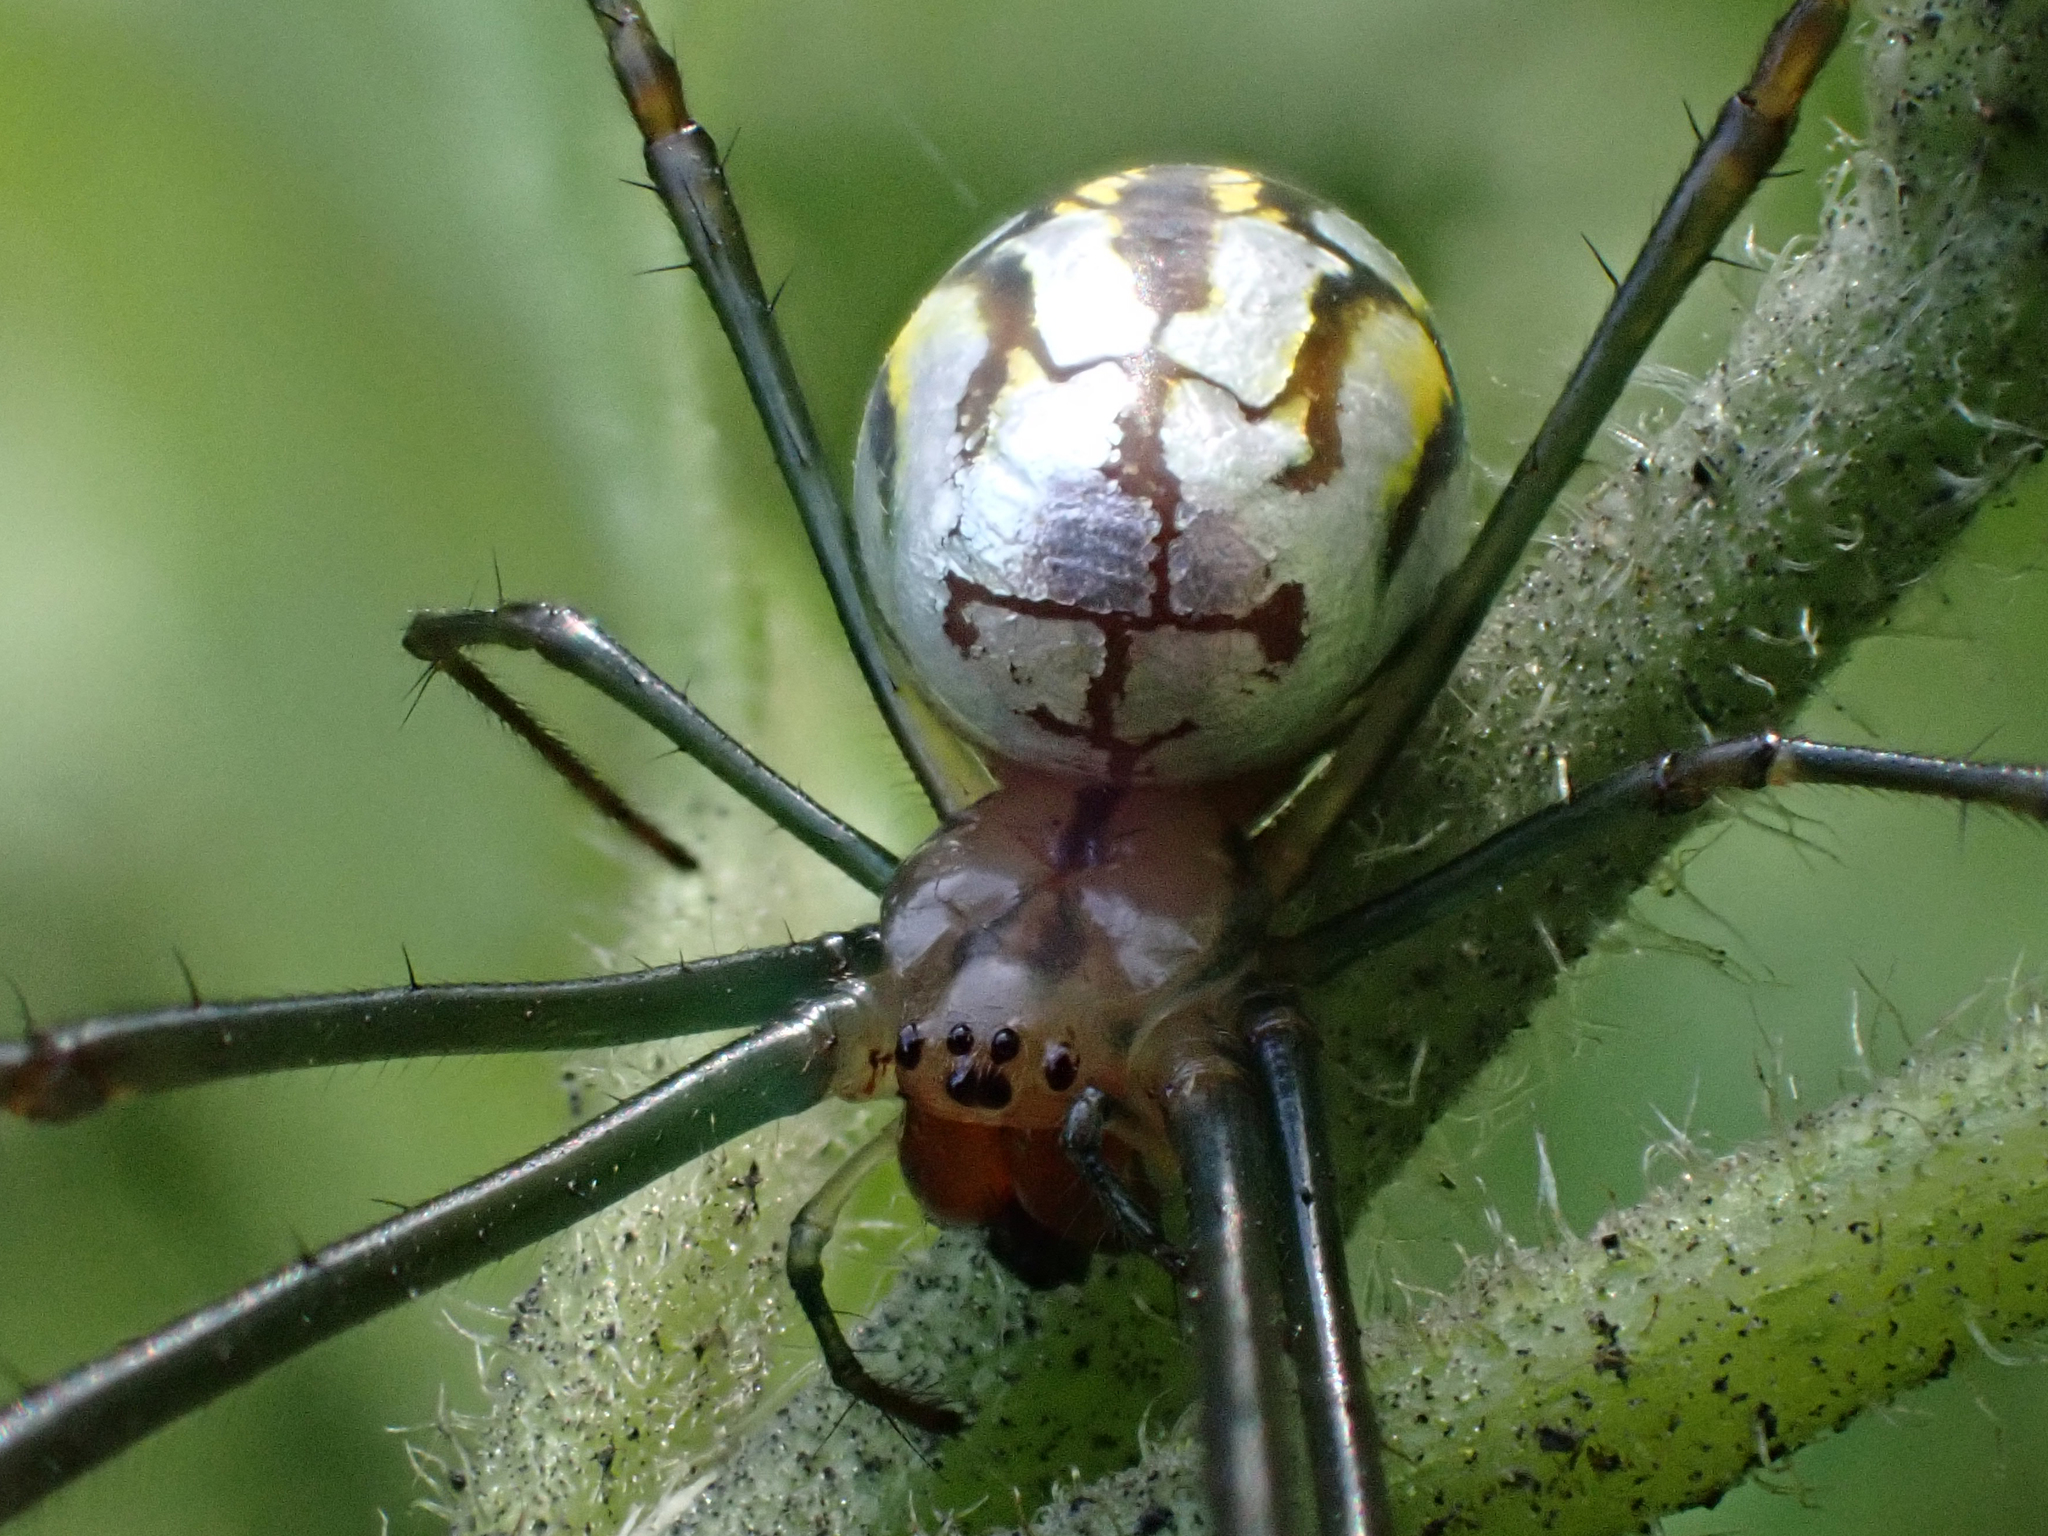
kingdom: Animalia
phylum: Arthropoda
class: Arachnida
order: Araneae
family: Tetragnathidae
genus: Leucauge
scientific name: Leucauge argyra
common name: Longjawed orb weavers
